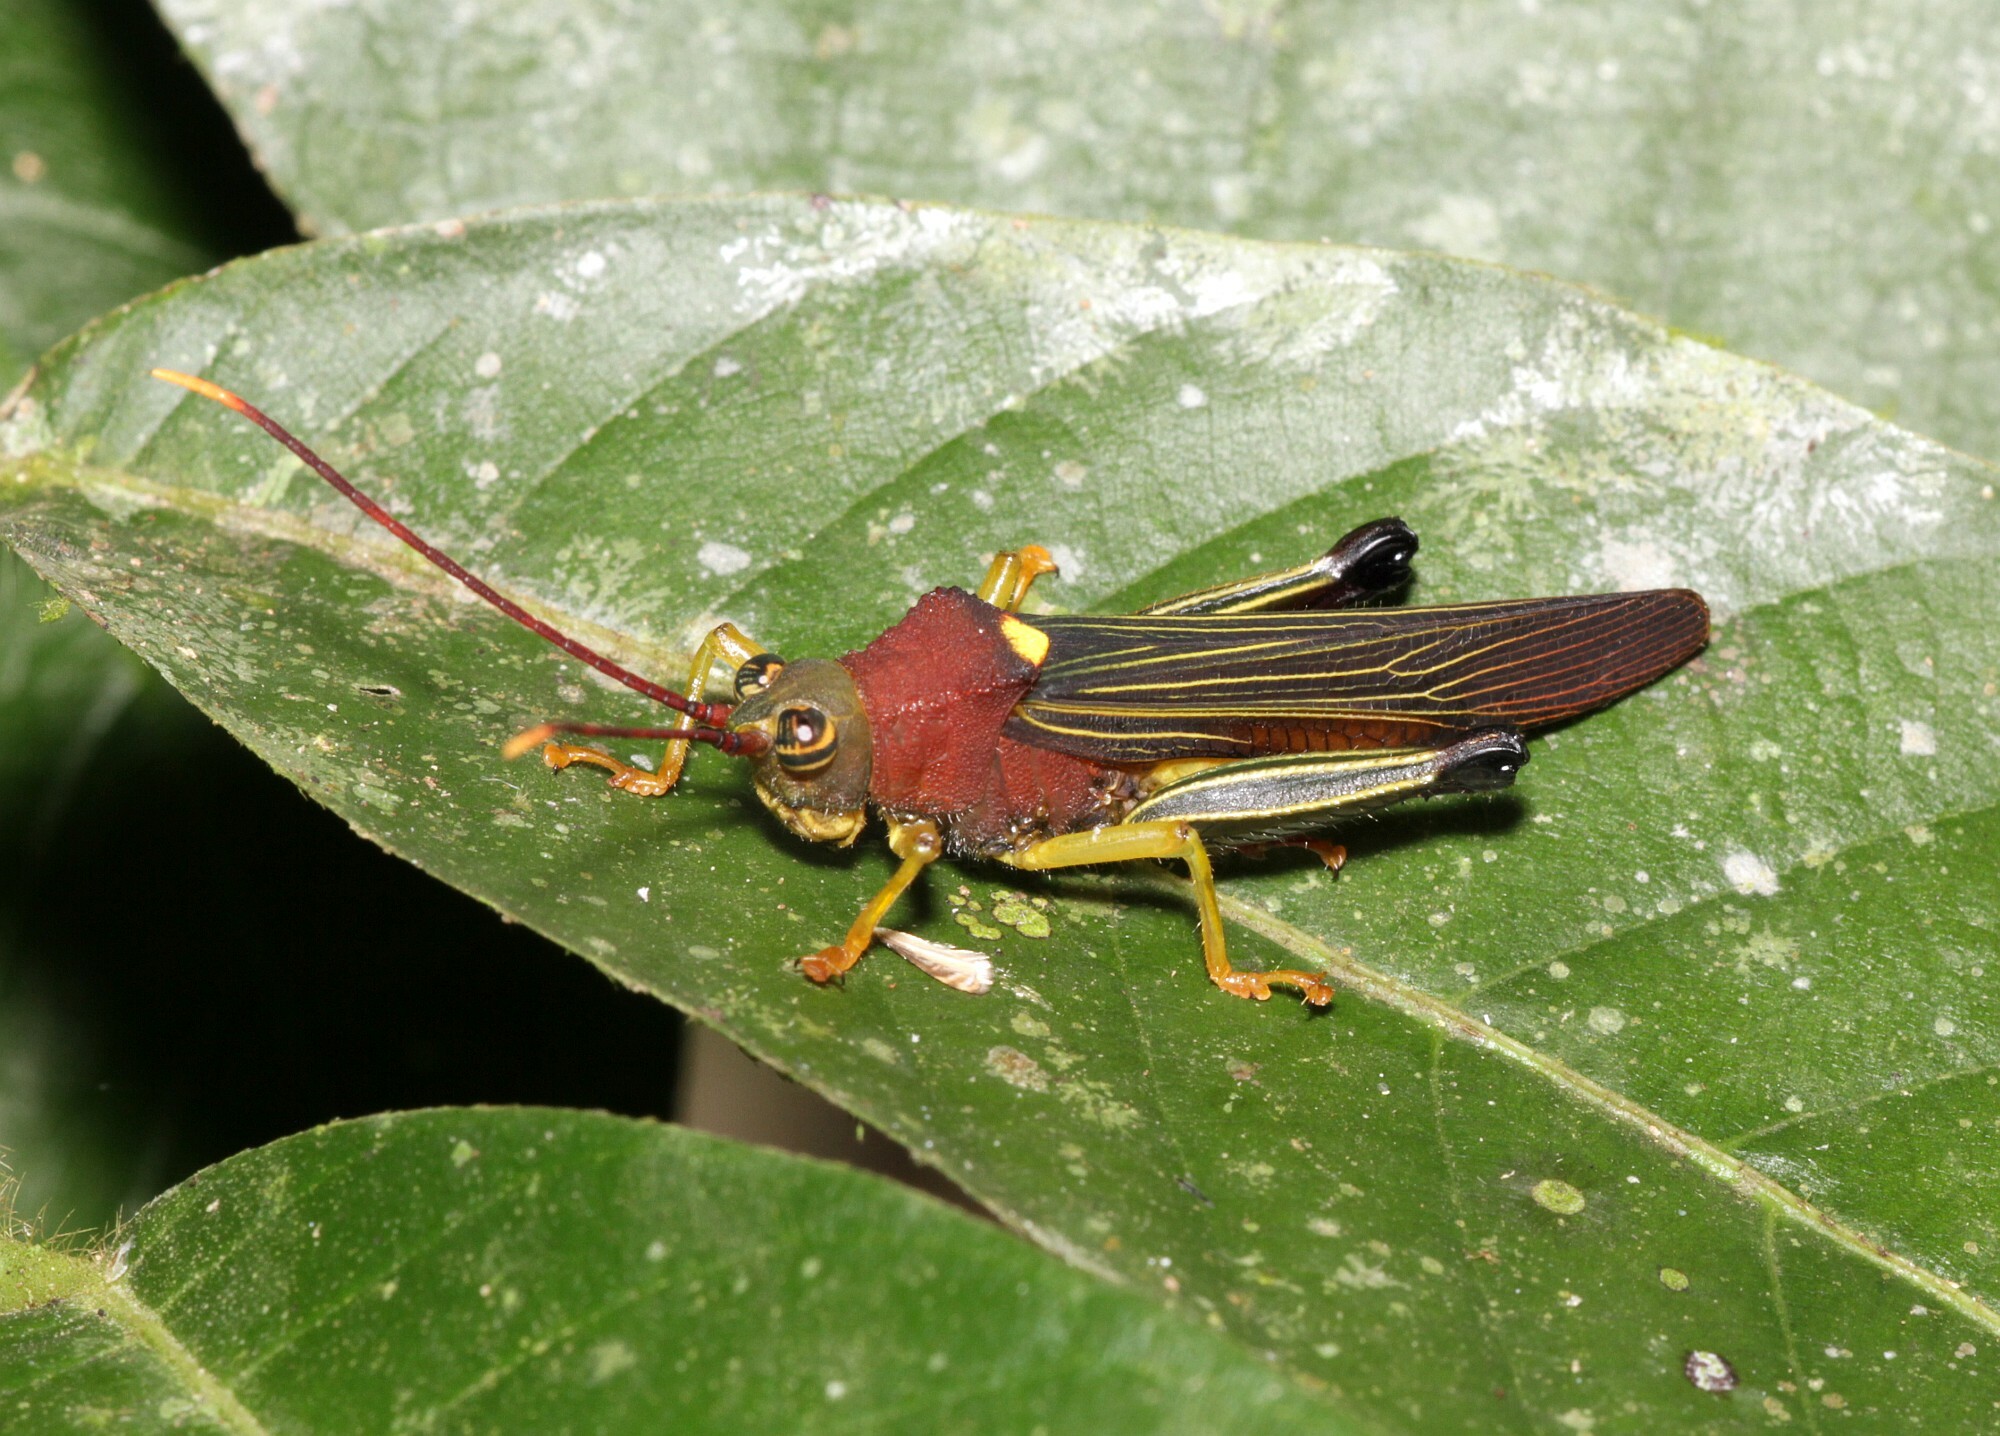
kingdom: Animalia
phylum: Arthropoda
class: Insecta
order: Orthoptera
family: Acrididae
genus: Hippacris
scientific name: Hippacris diversa
